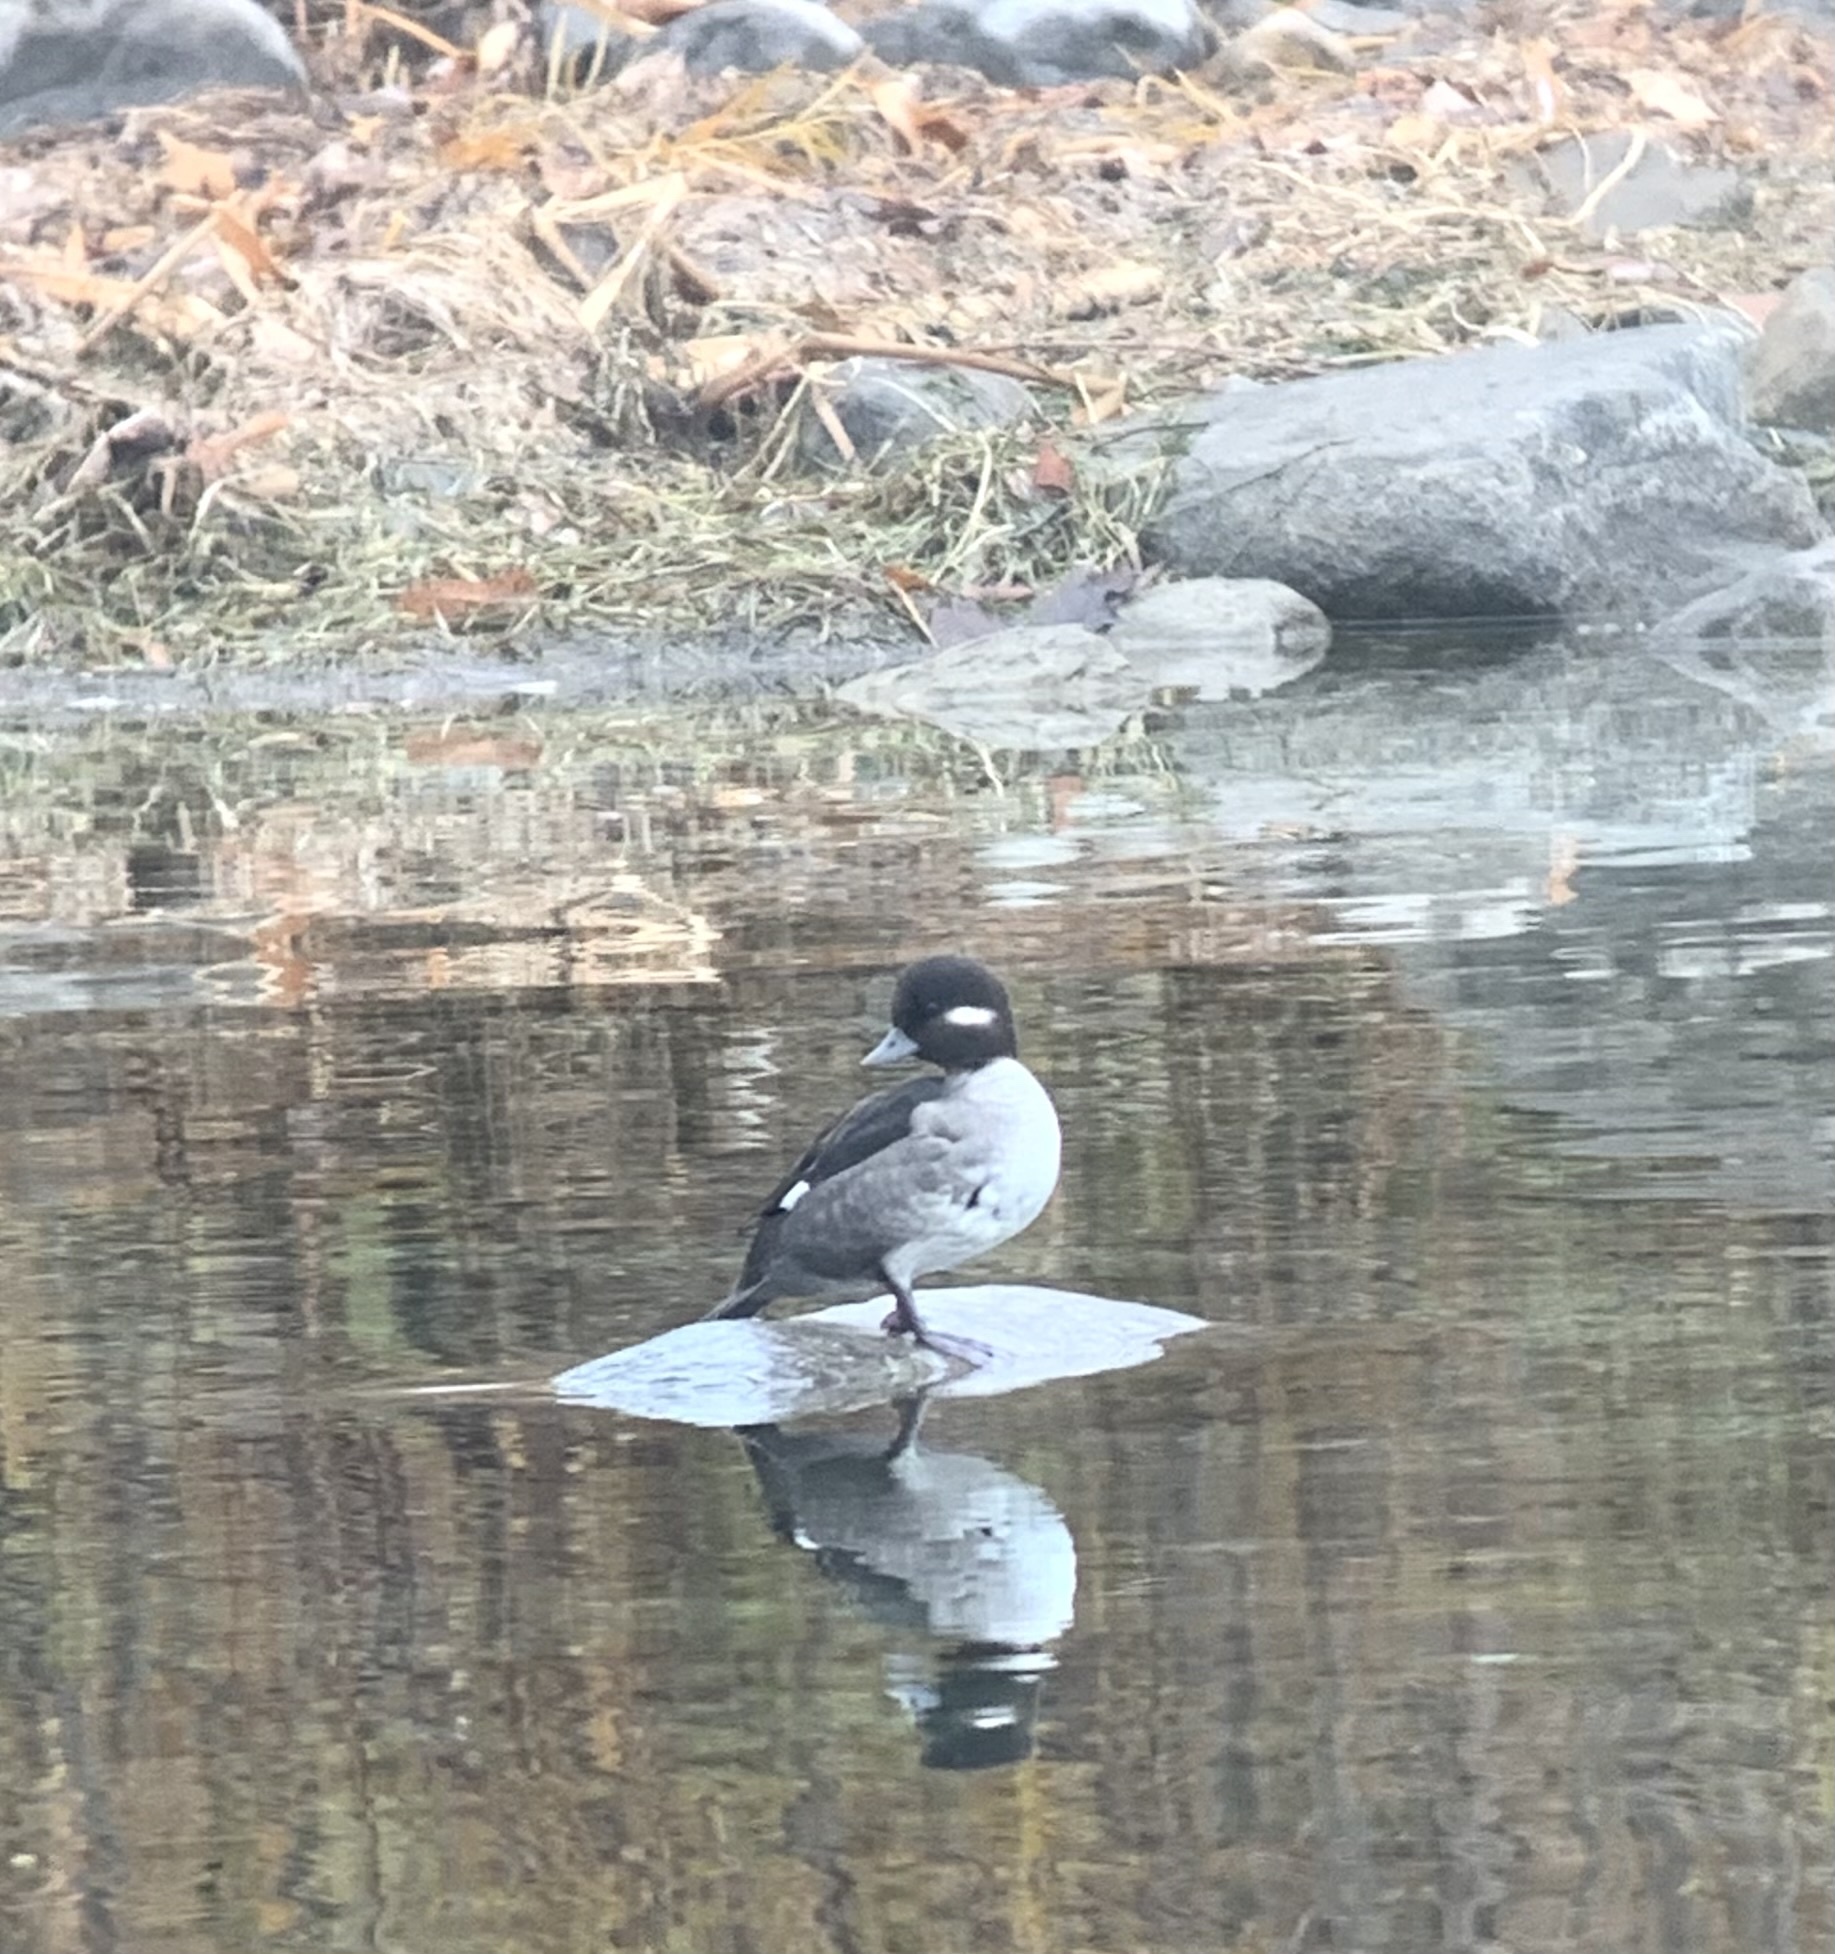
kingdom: Animalia
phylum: Chordata
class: Aves
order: Anseriformes
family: Anatidae
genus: Bucephala
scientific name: Bucephala albeola
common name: Bufflehead
